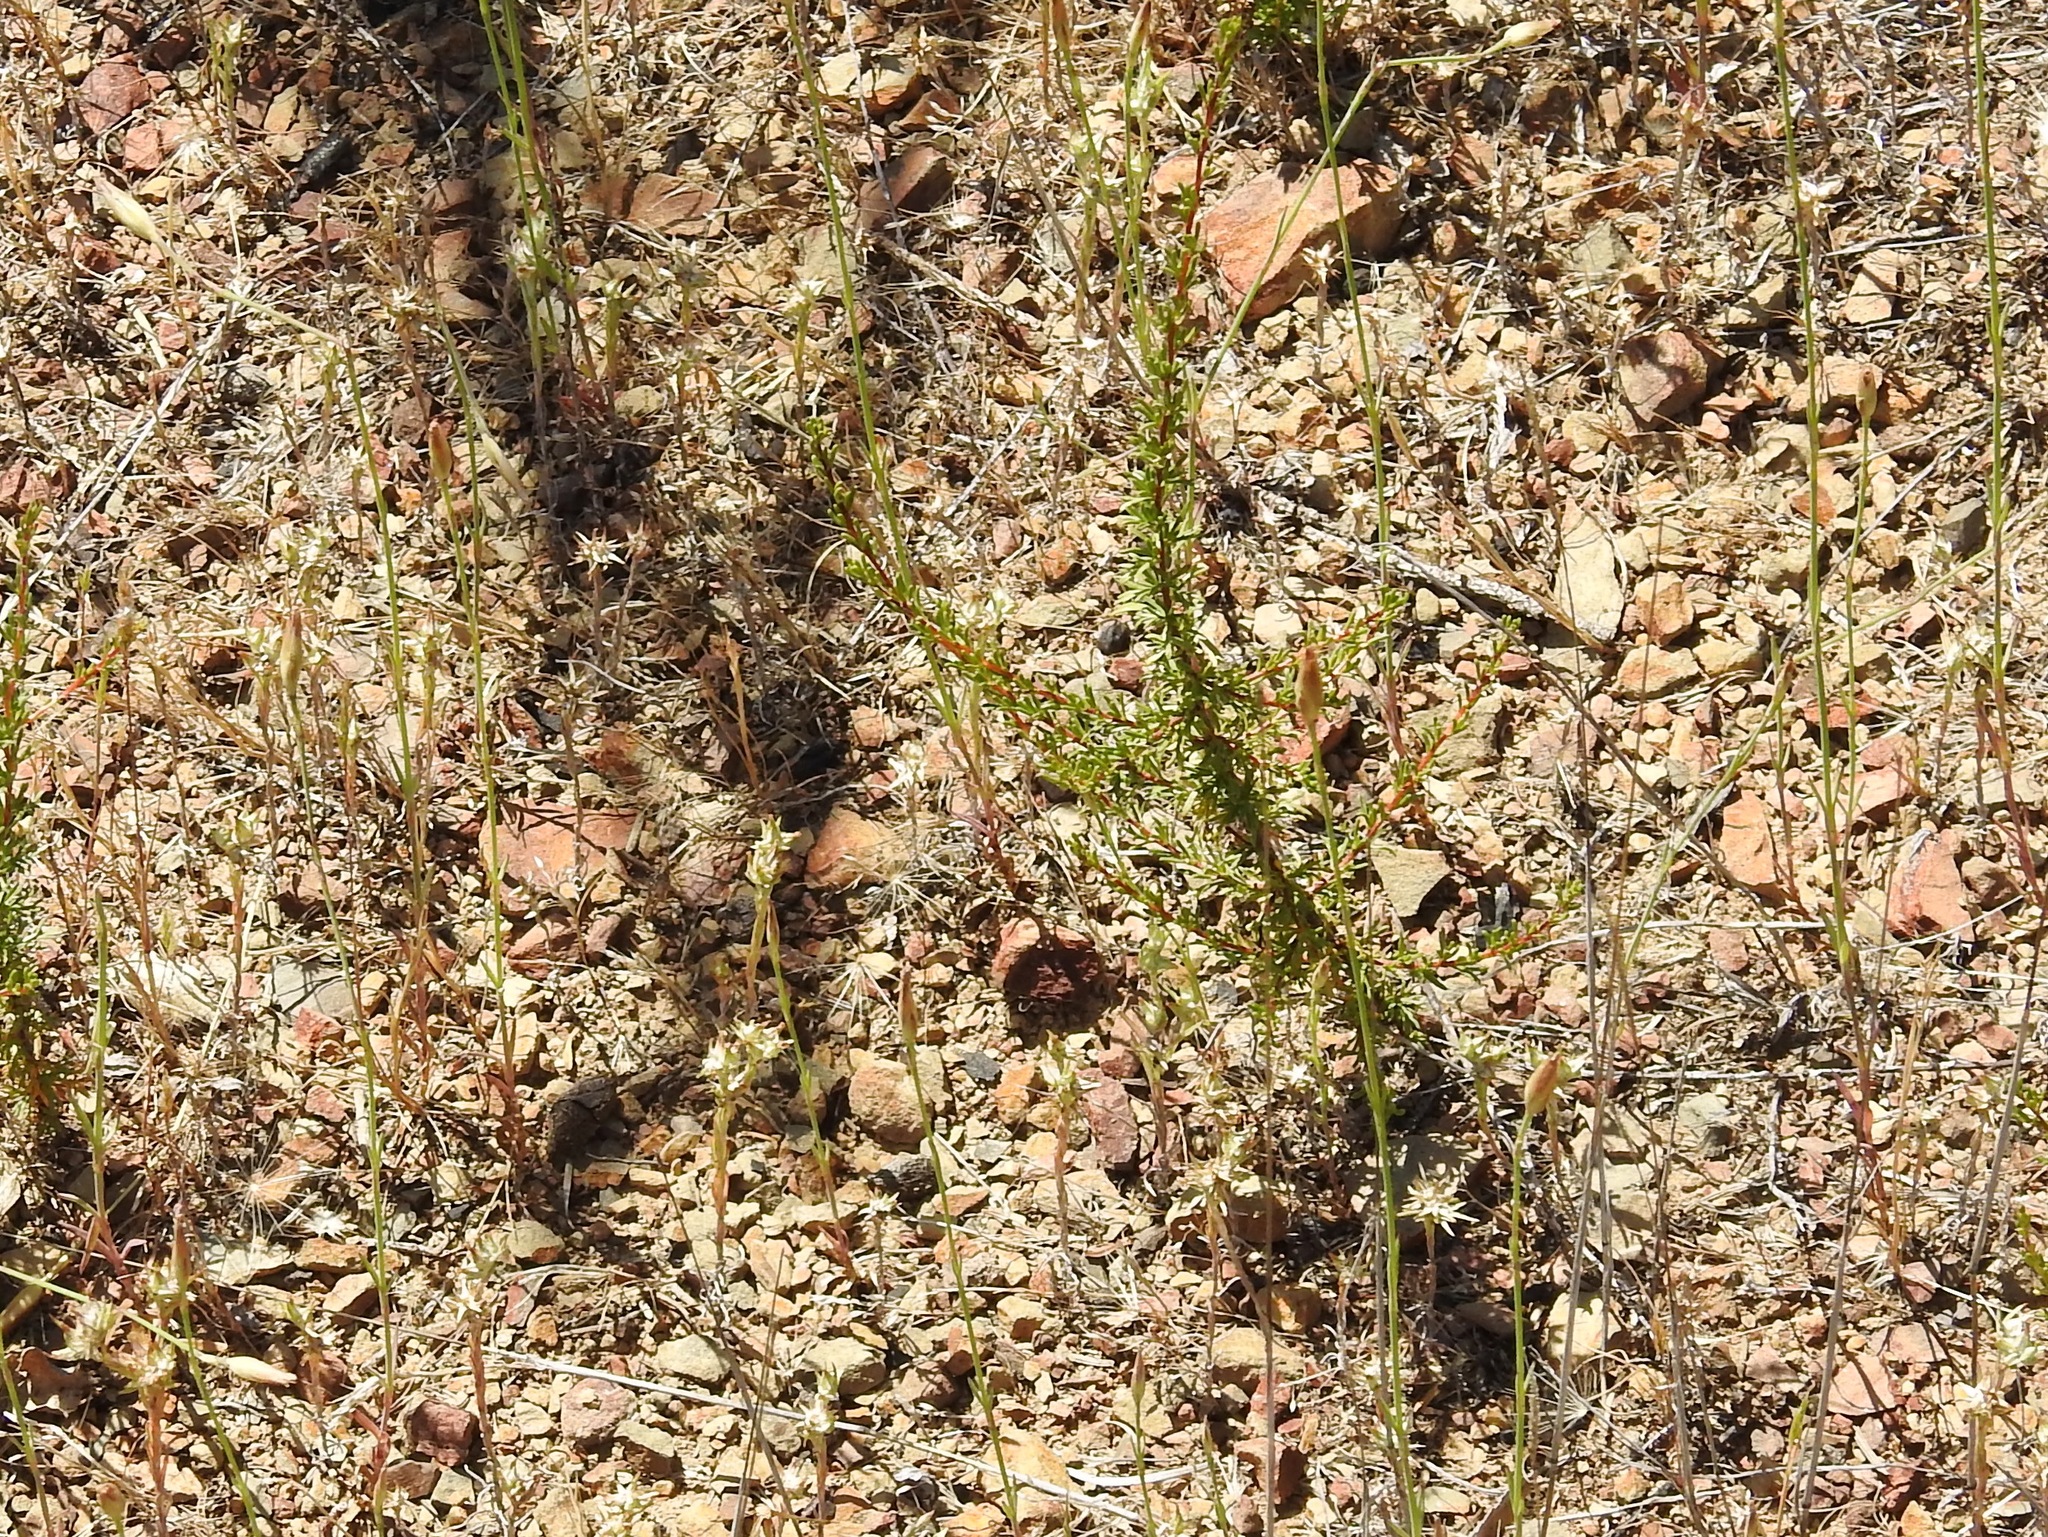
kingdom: Plantae
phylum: Tracheophyta
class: Magnoliopsida
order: Rosales
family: Rosaceae
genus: Adenostoma
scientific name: Adenostoma fasciculatum
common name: Chamise
